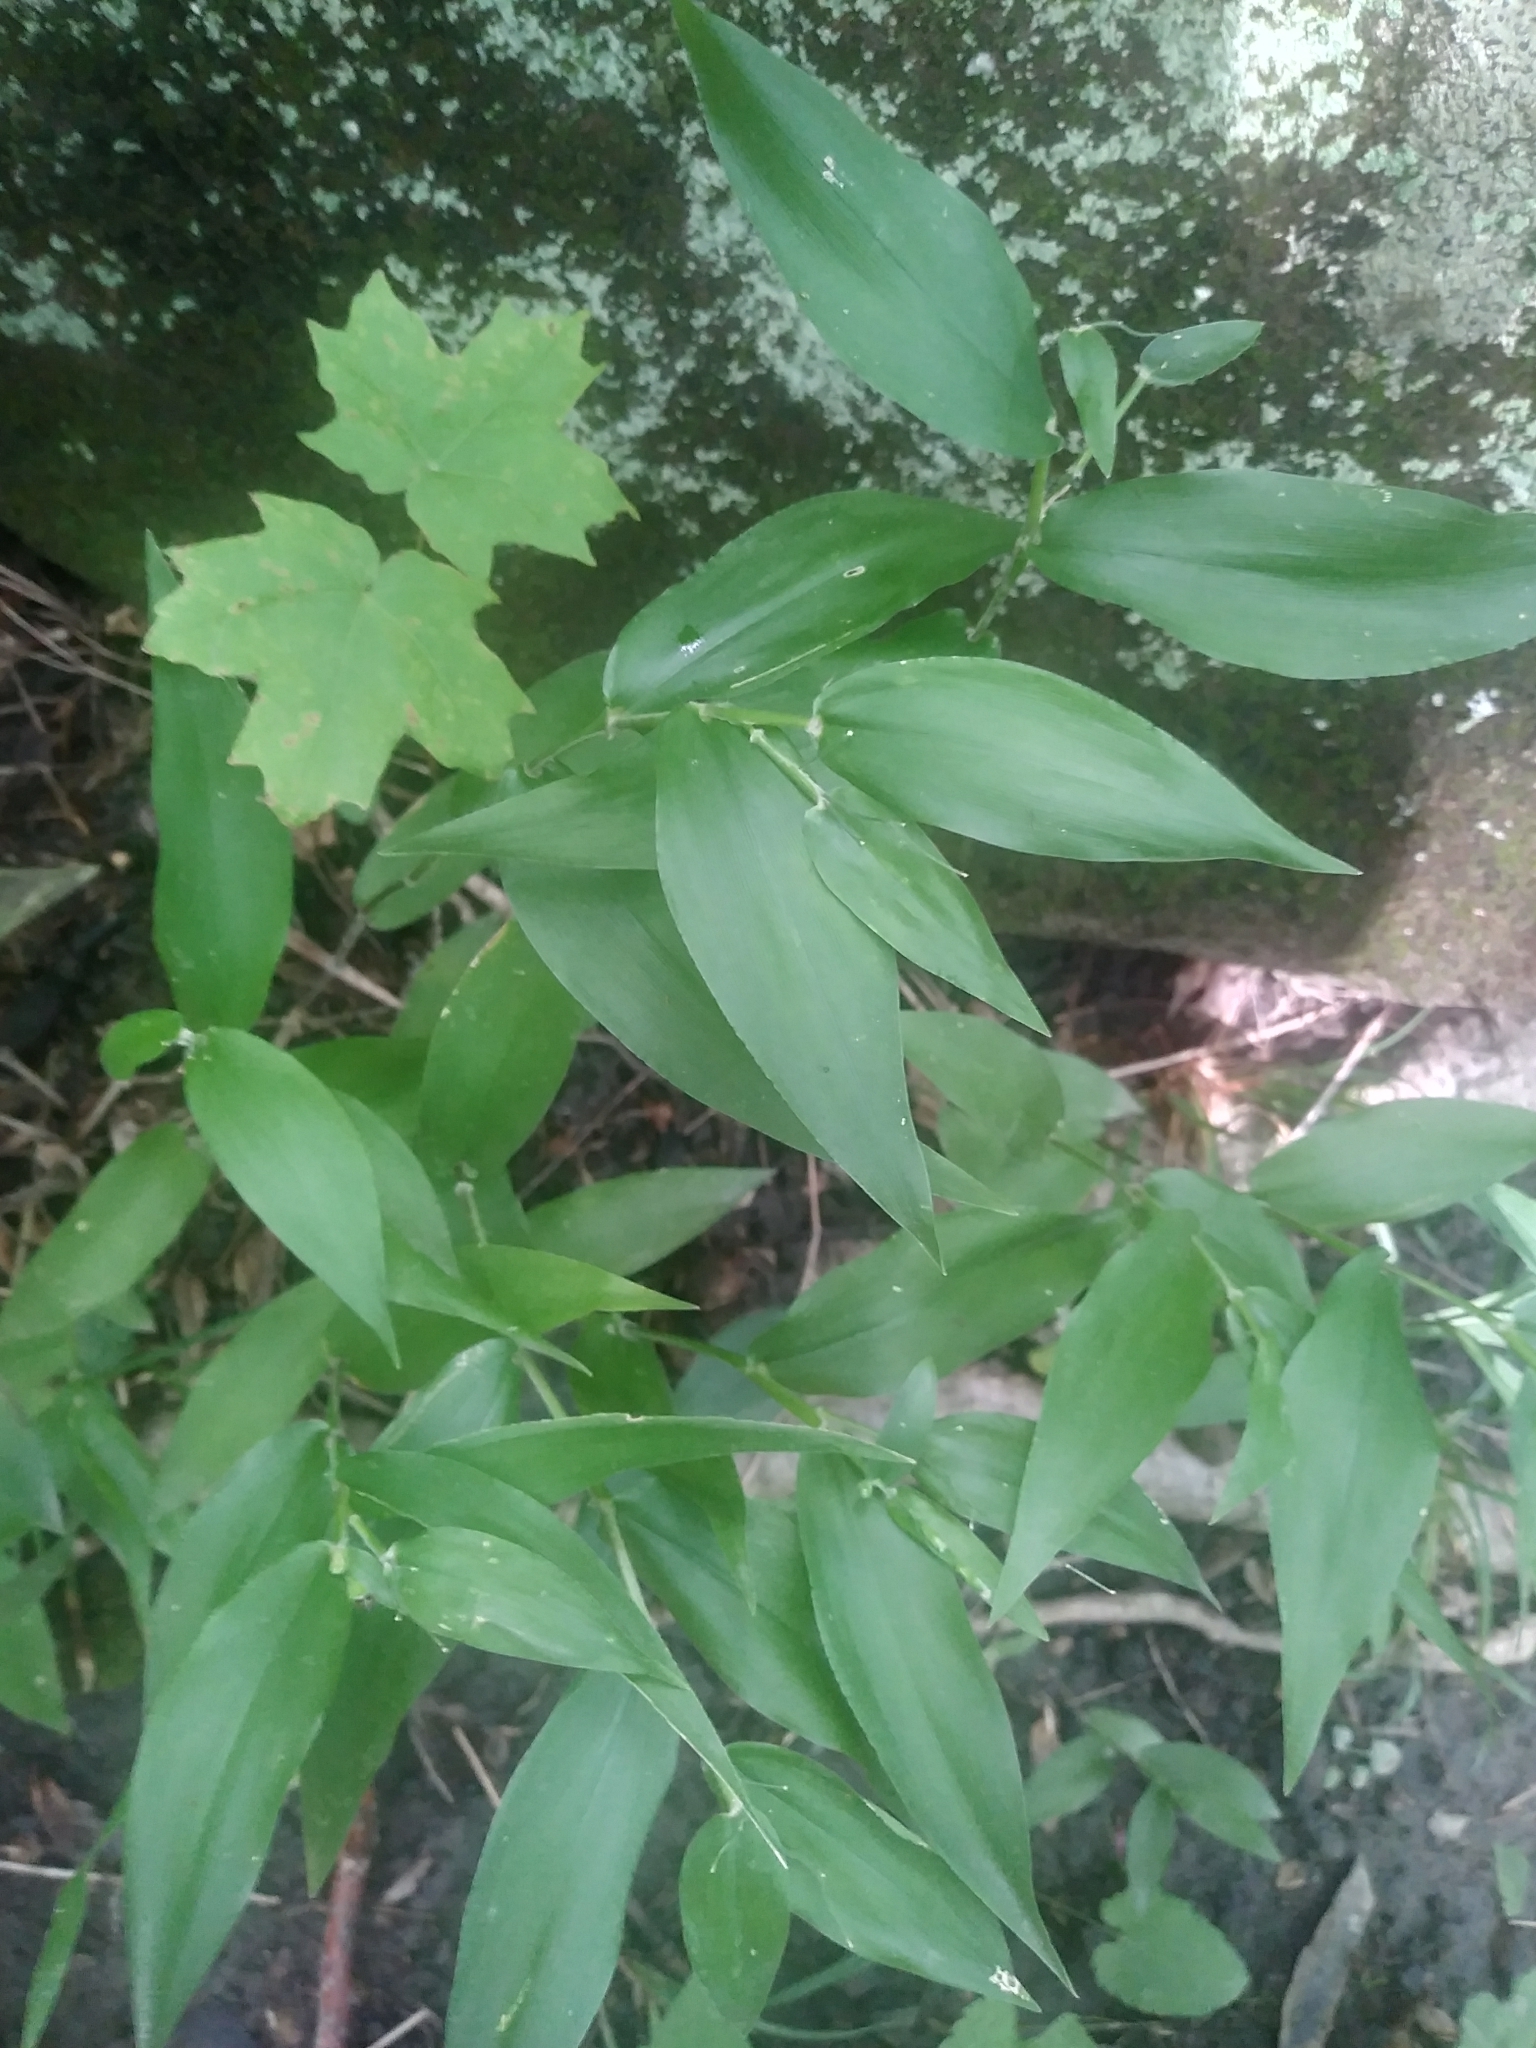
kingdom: Plantae
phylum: Tracheophyta
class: Liliopsida
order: Poales
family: Poaceae
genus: Dichanthelium
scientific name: Dichanthelium boscii
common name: Bosc's panic grass
